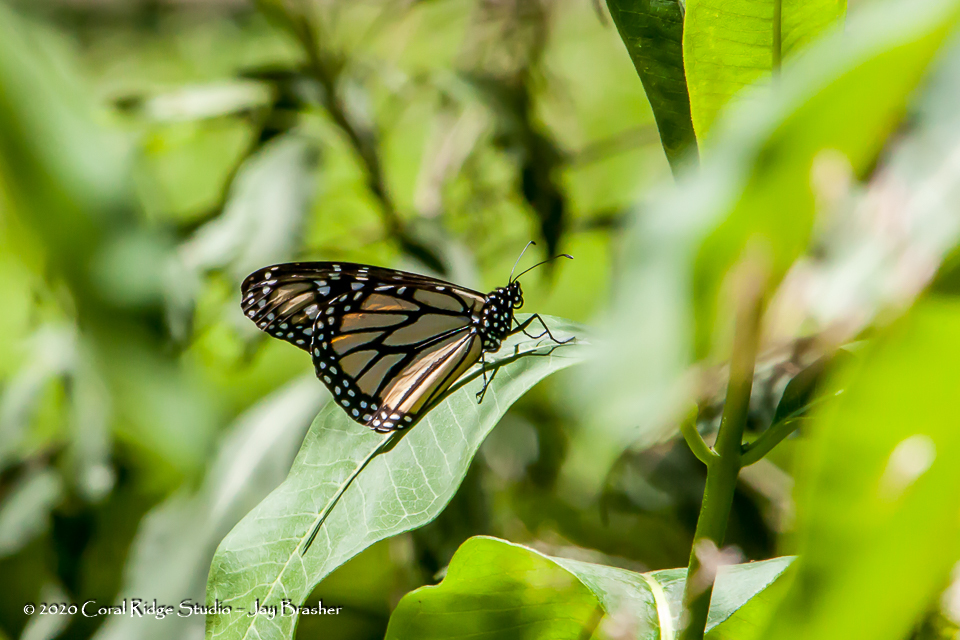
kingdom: Animalia
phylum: Arthropoda
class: Insecta
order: Lepidoptera
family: Nymphalidae
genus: Danaus
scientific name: Danaus plexippus
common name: Monarch
